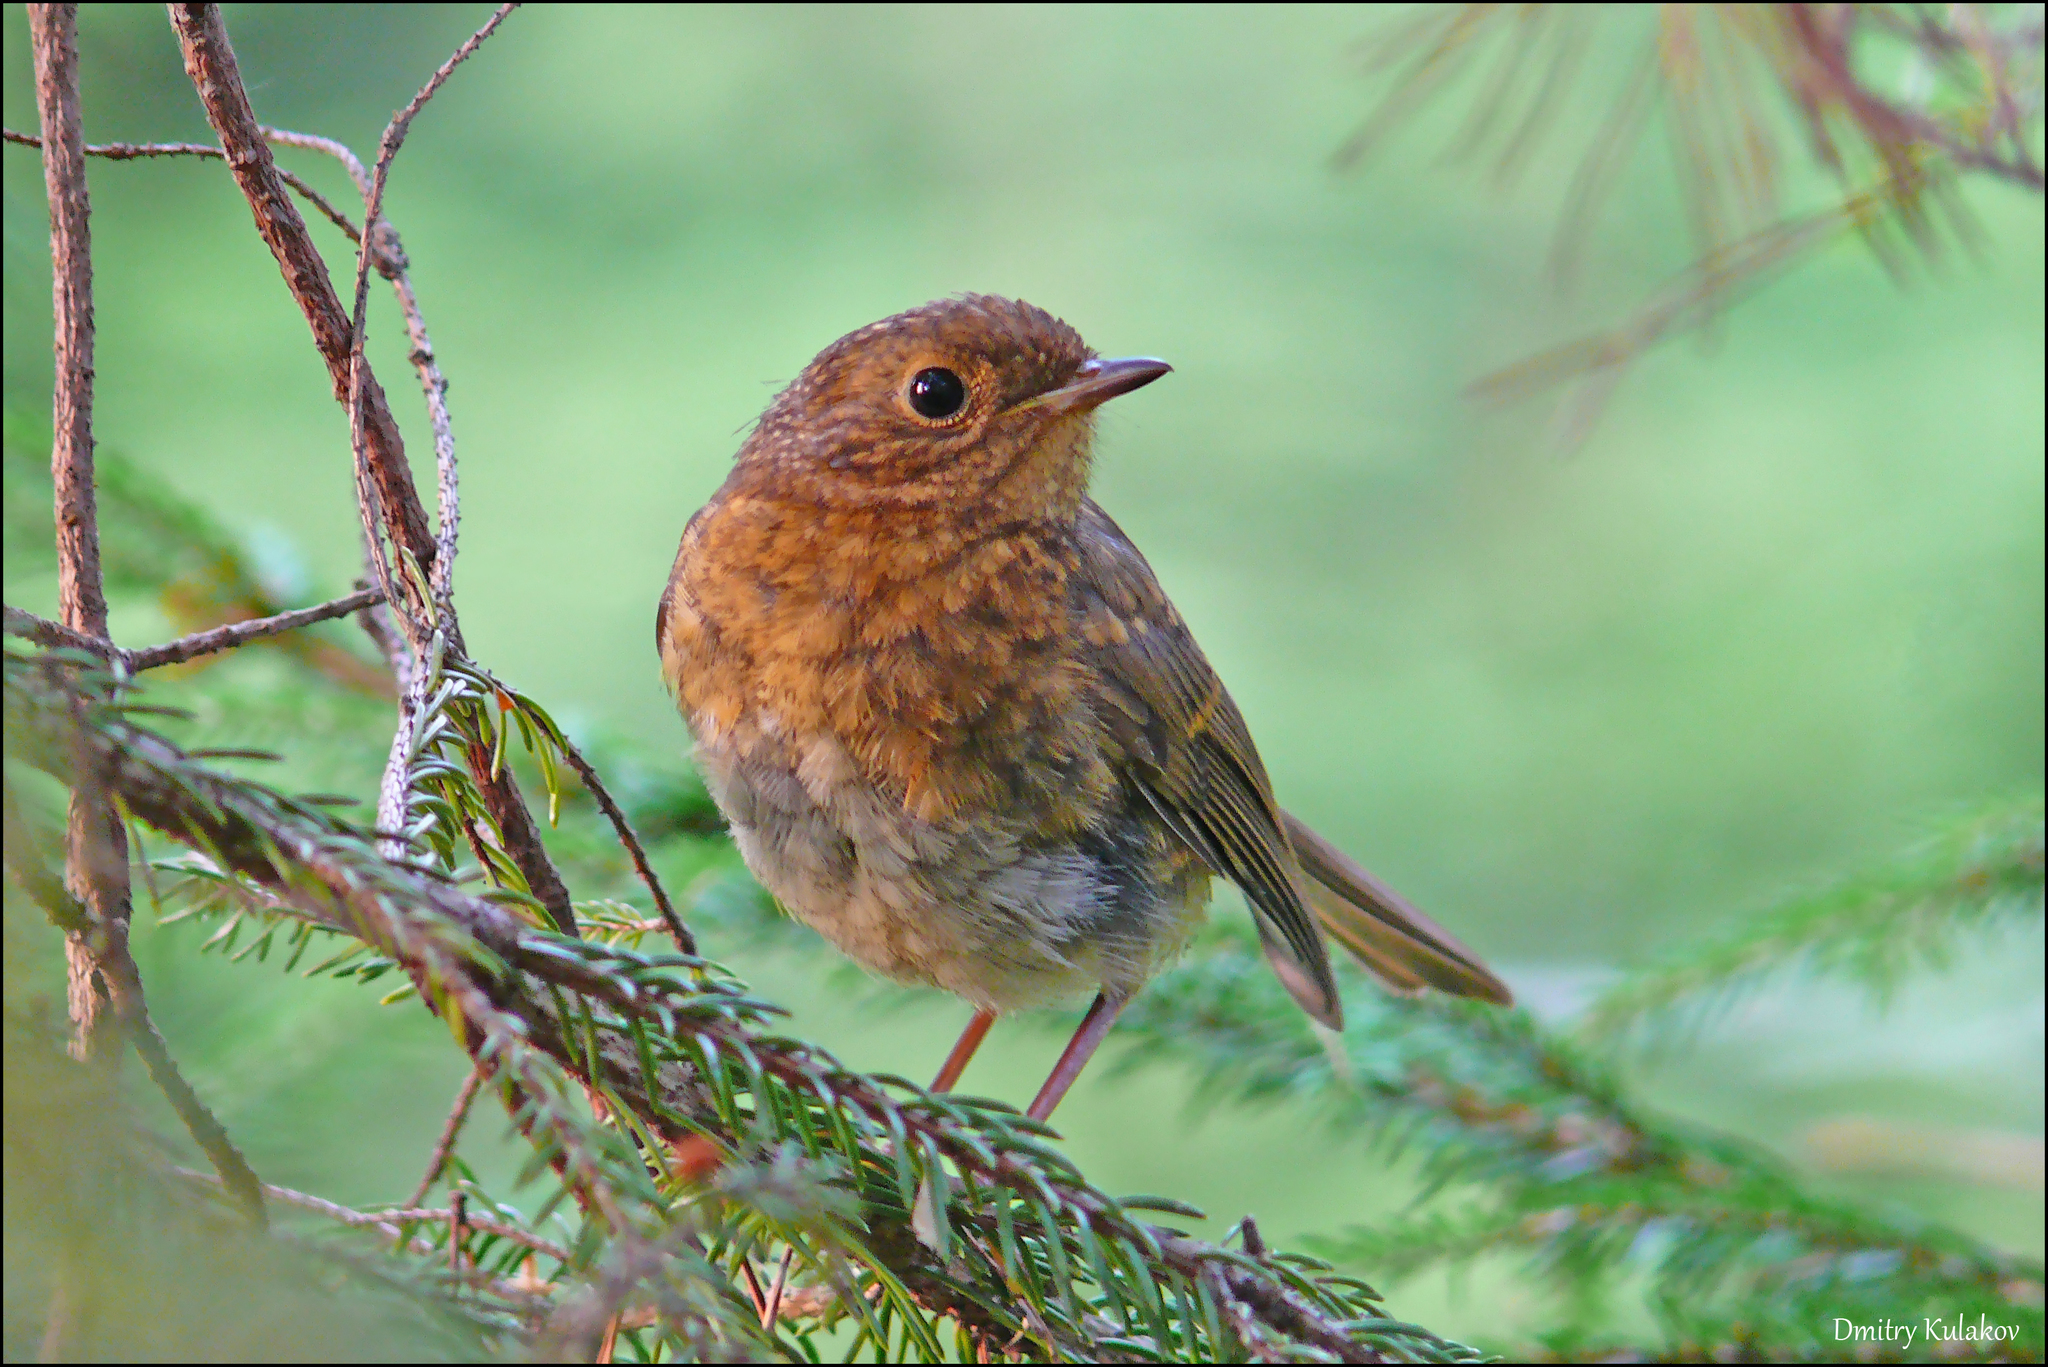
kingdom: Animalia
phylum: Chordata
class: Aves
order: Passeriformes
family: Muscicapidae
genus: Erithacus
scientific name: Erithacus rubecula
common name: European robin
